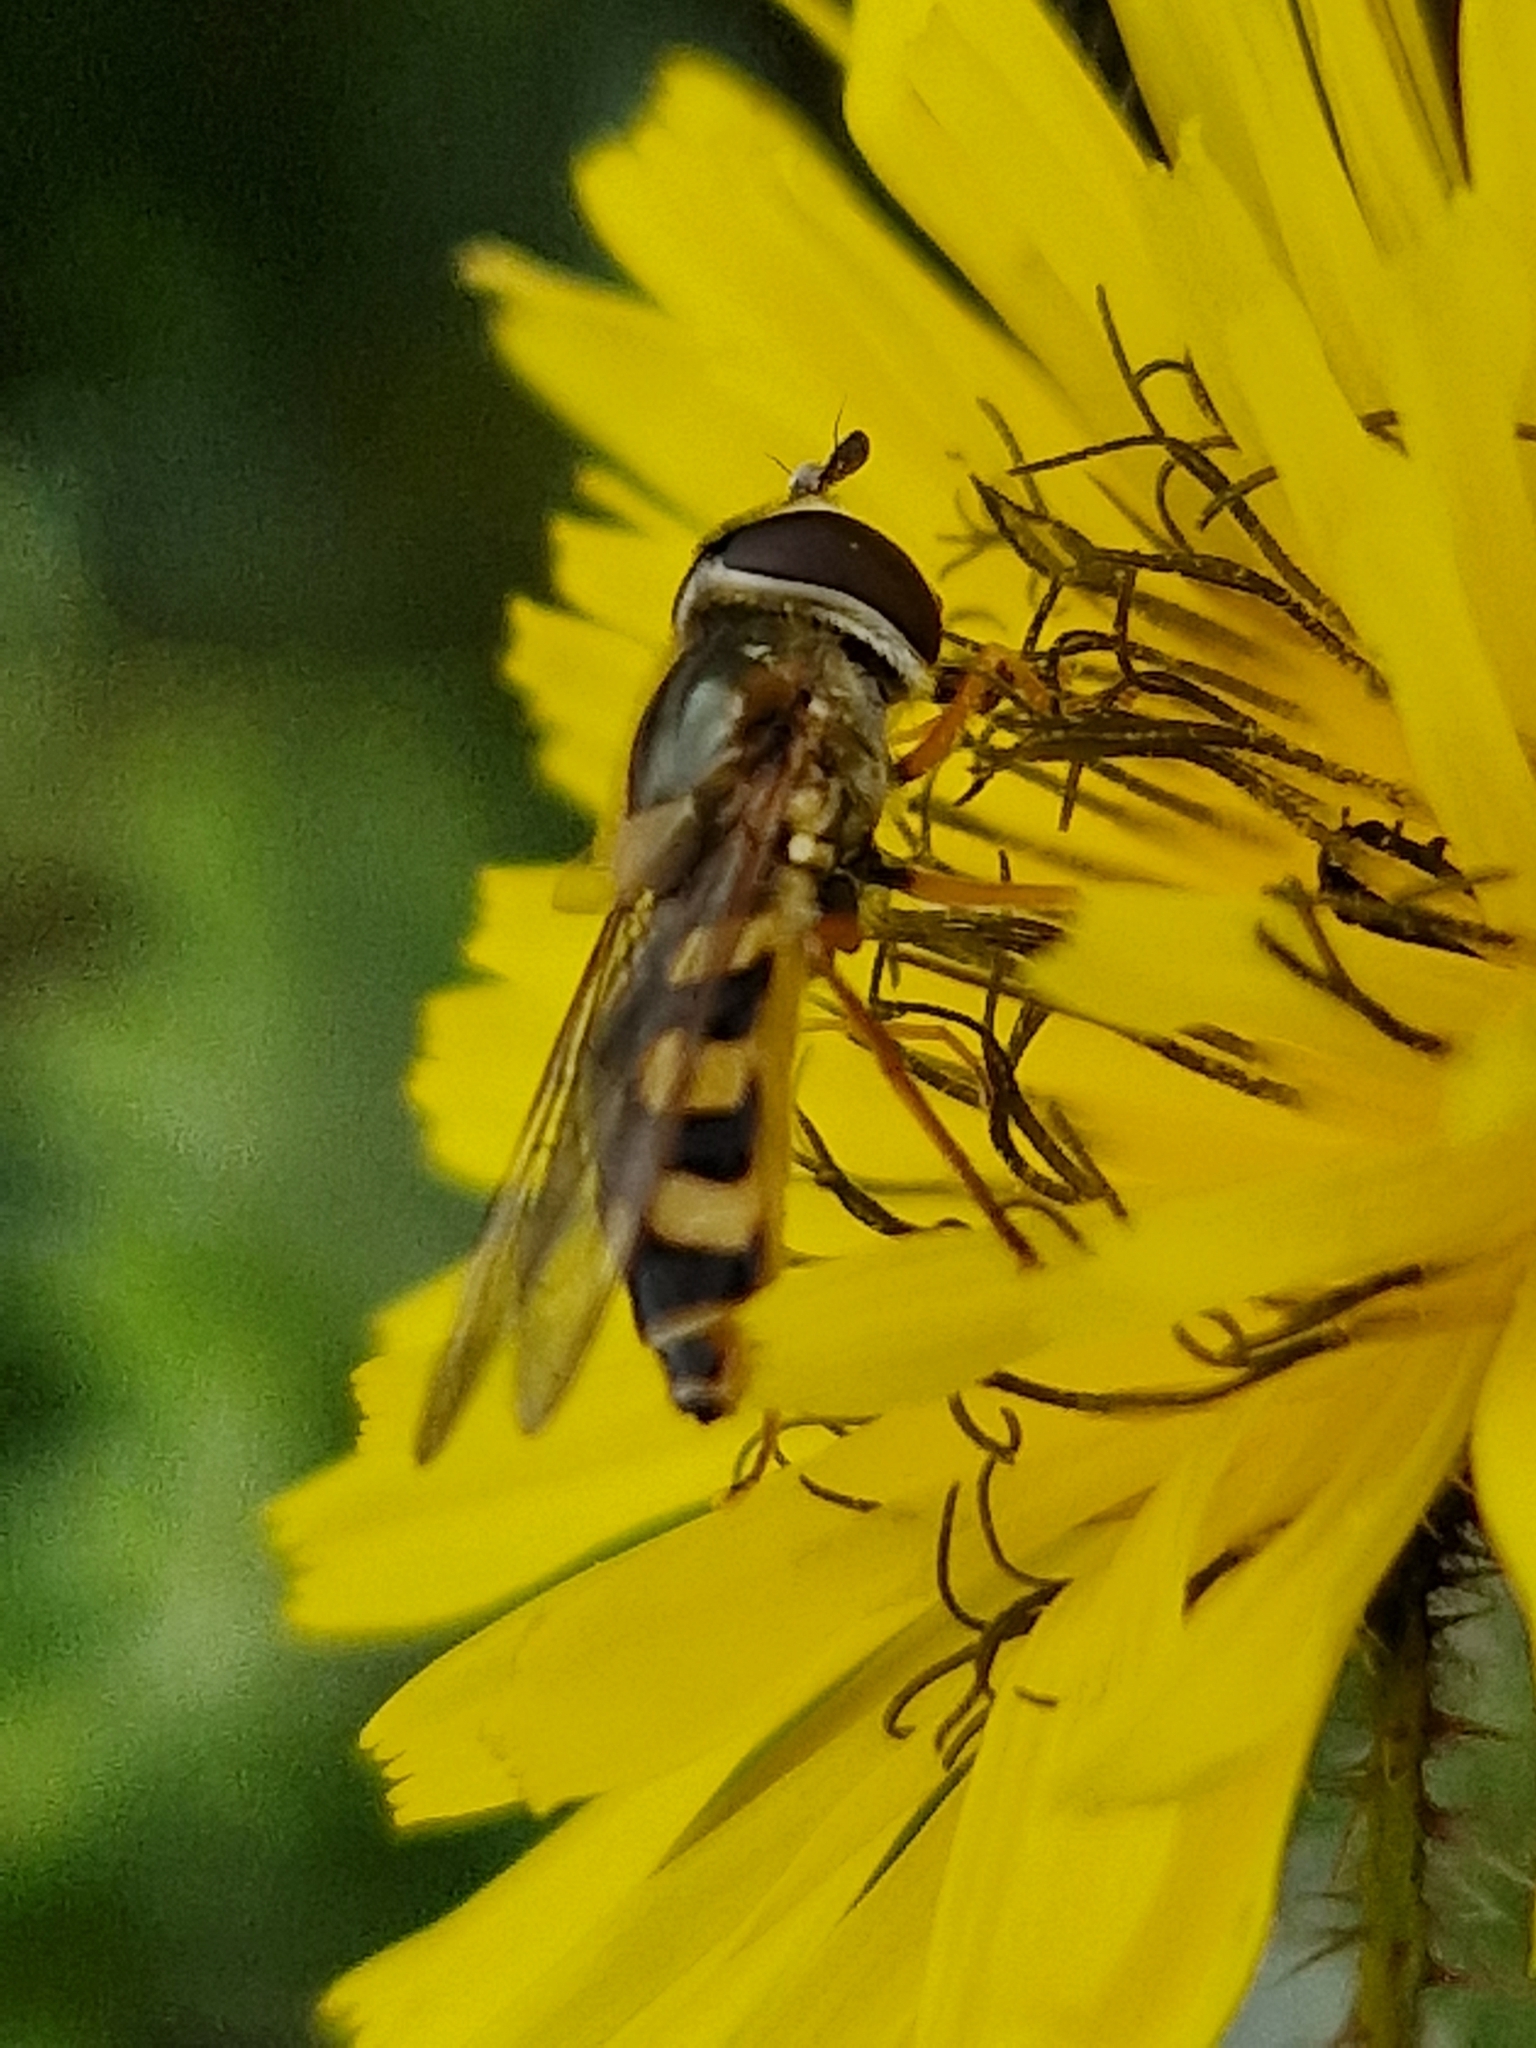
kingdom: Animalia
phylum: Arthropoda
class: Insecta
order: Diptera
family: Syrphidae
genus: Eupeodes
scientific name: Eupeodes corollae
